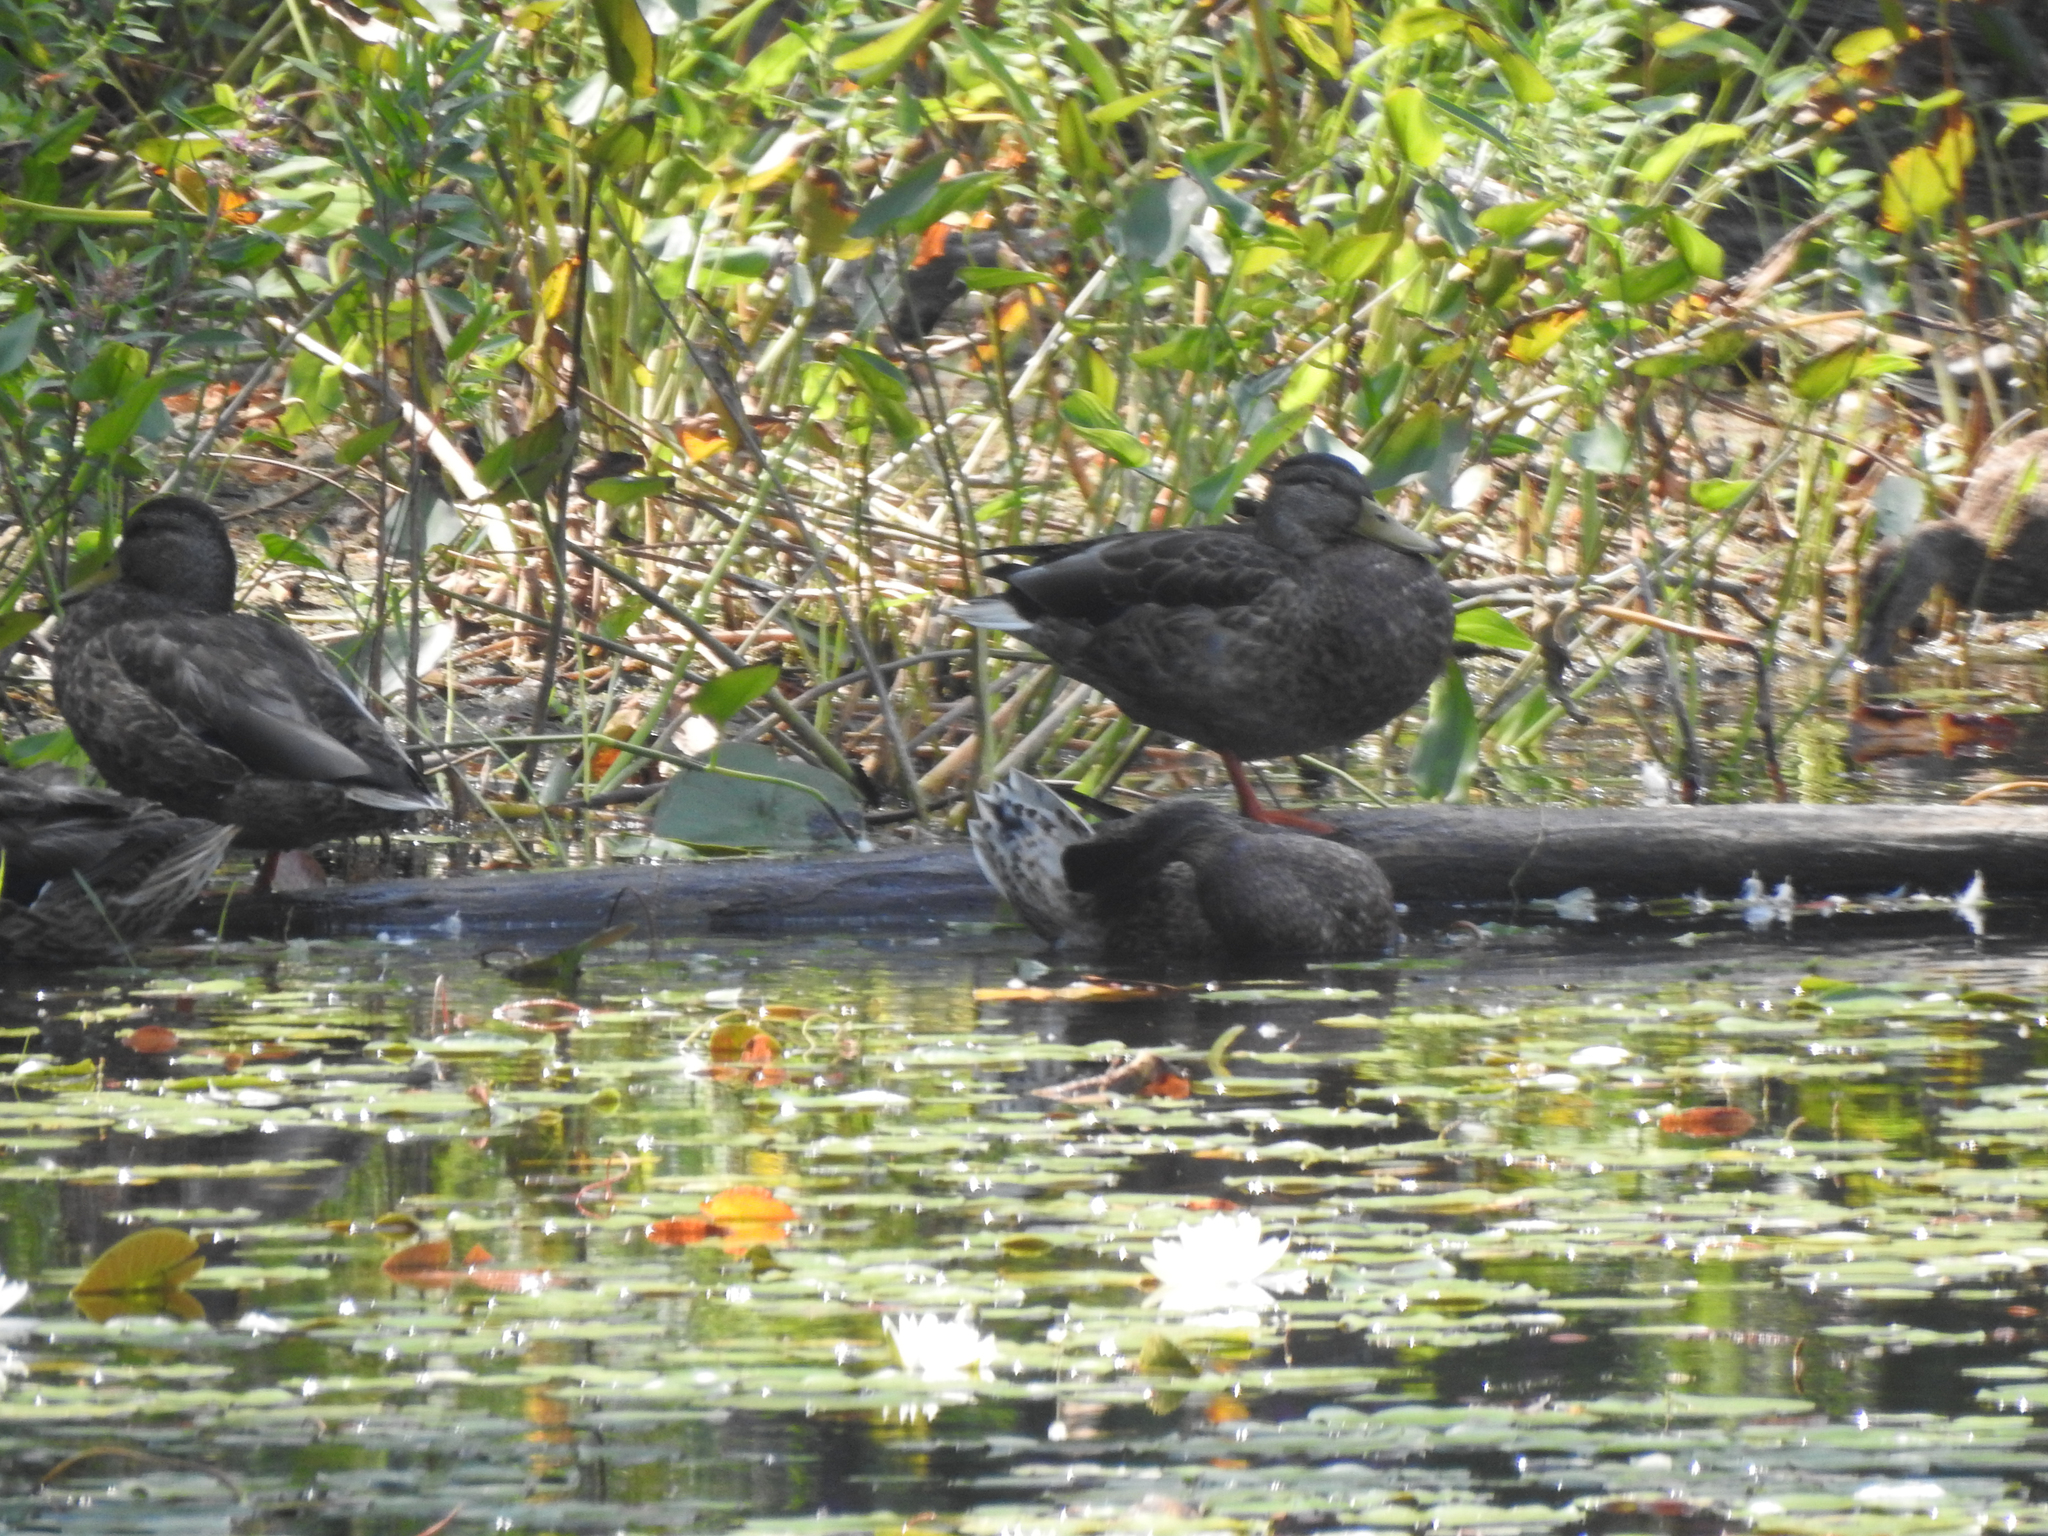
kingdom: Animalia
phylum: Chordata
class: Aves
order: Anseriformes
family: Anatidae
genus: Anas
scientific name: Anas platyrhynchos
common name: Mallard
